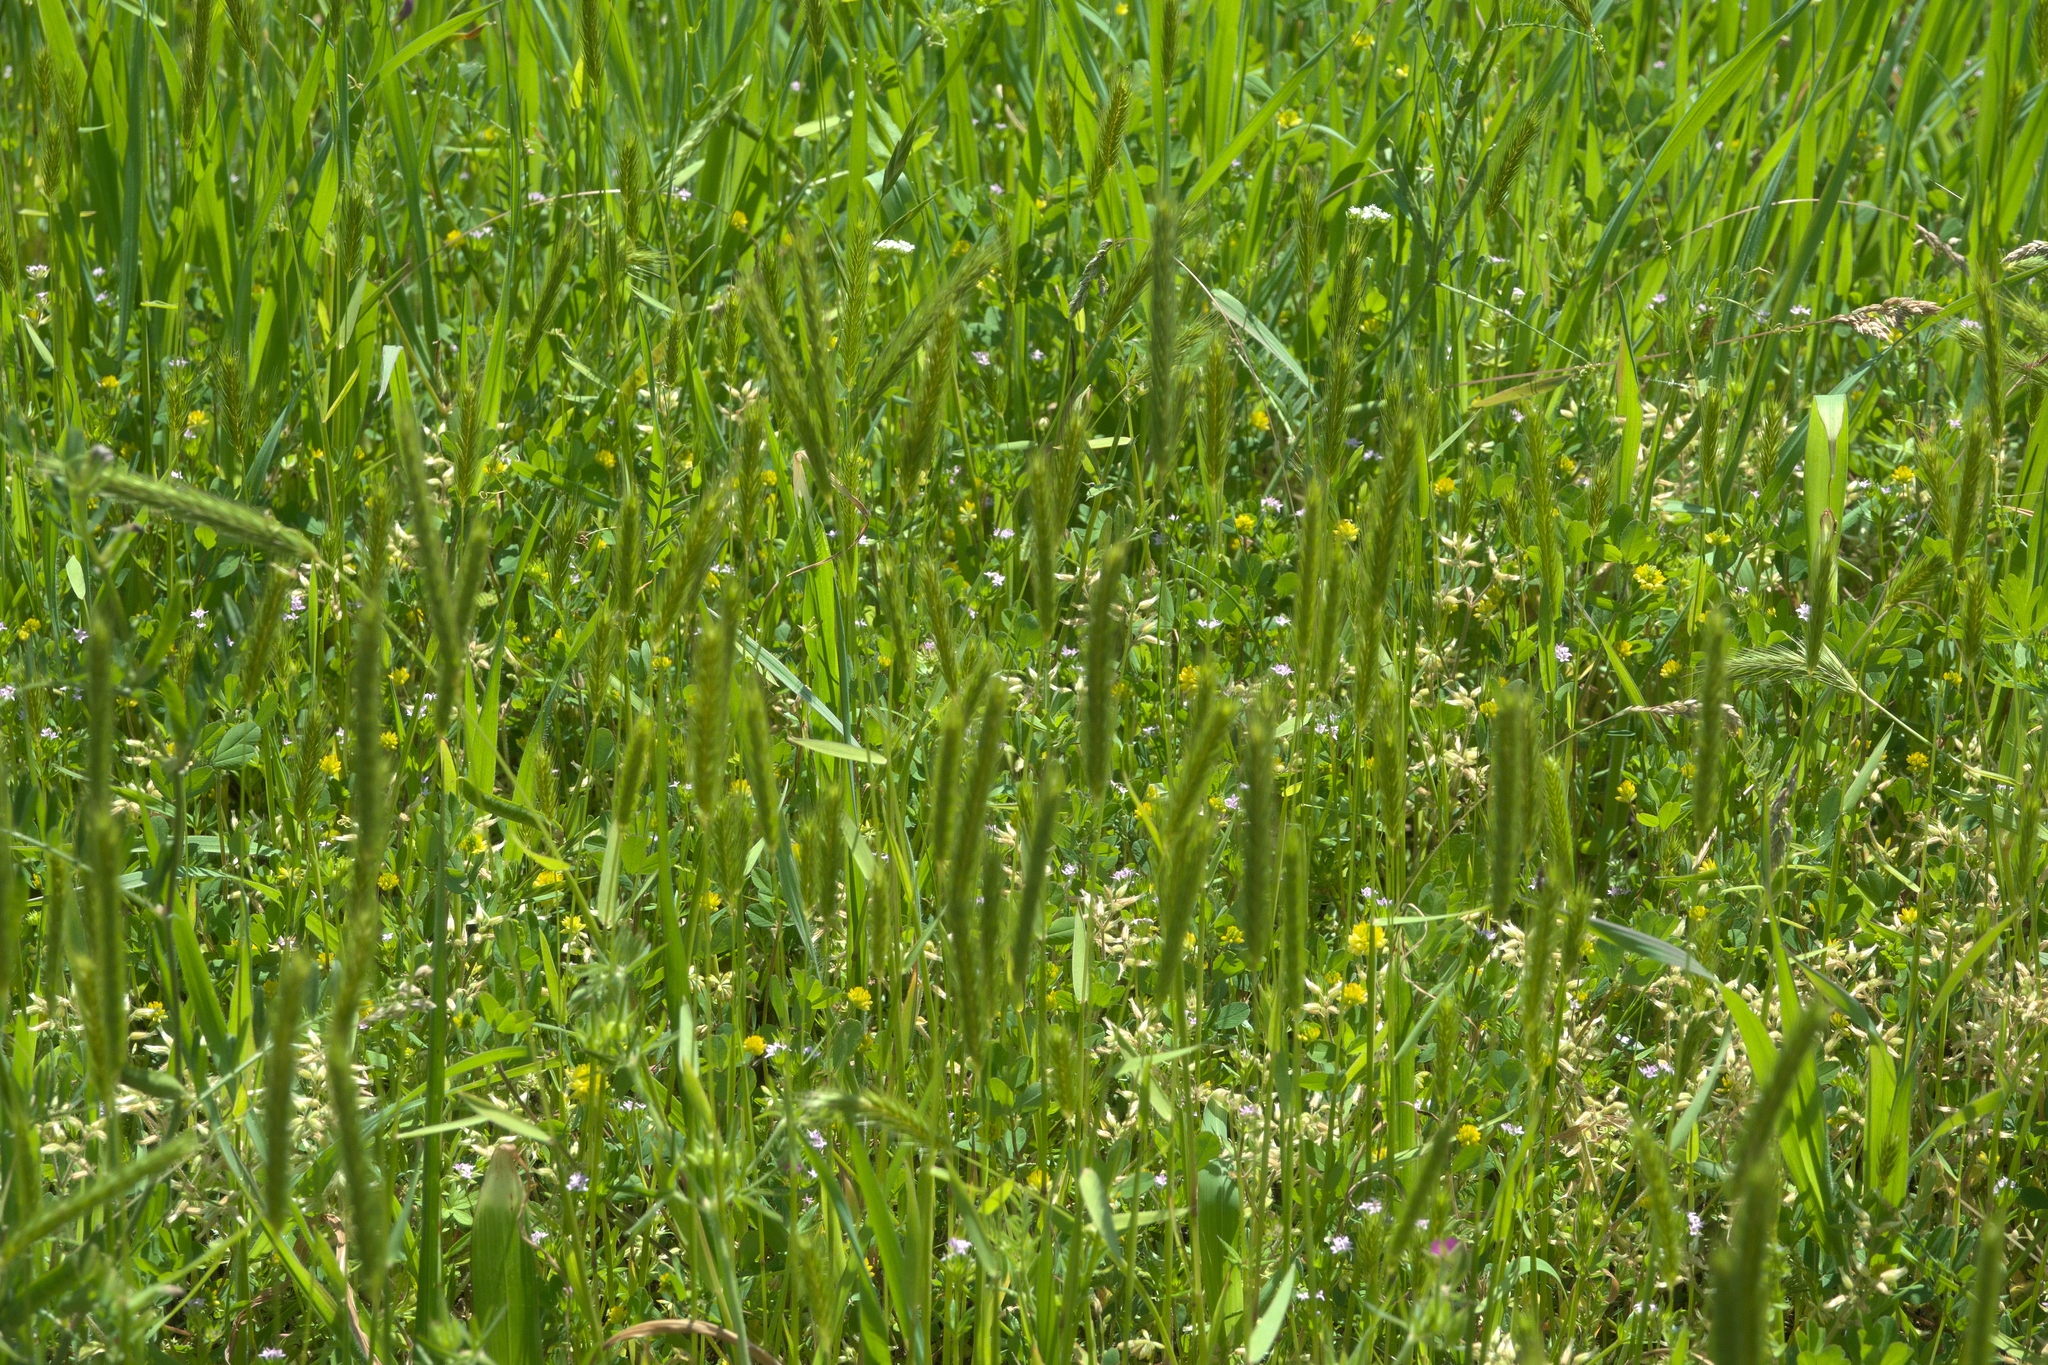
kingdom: Plantae
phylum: Tracheophyta
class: Liliopsida
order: Poales
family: Poaceae
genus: Hordeum
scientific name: Hordeum pusillum
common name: Little barley
